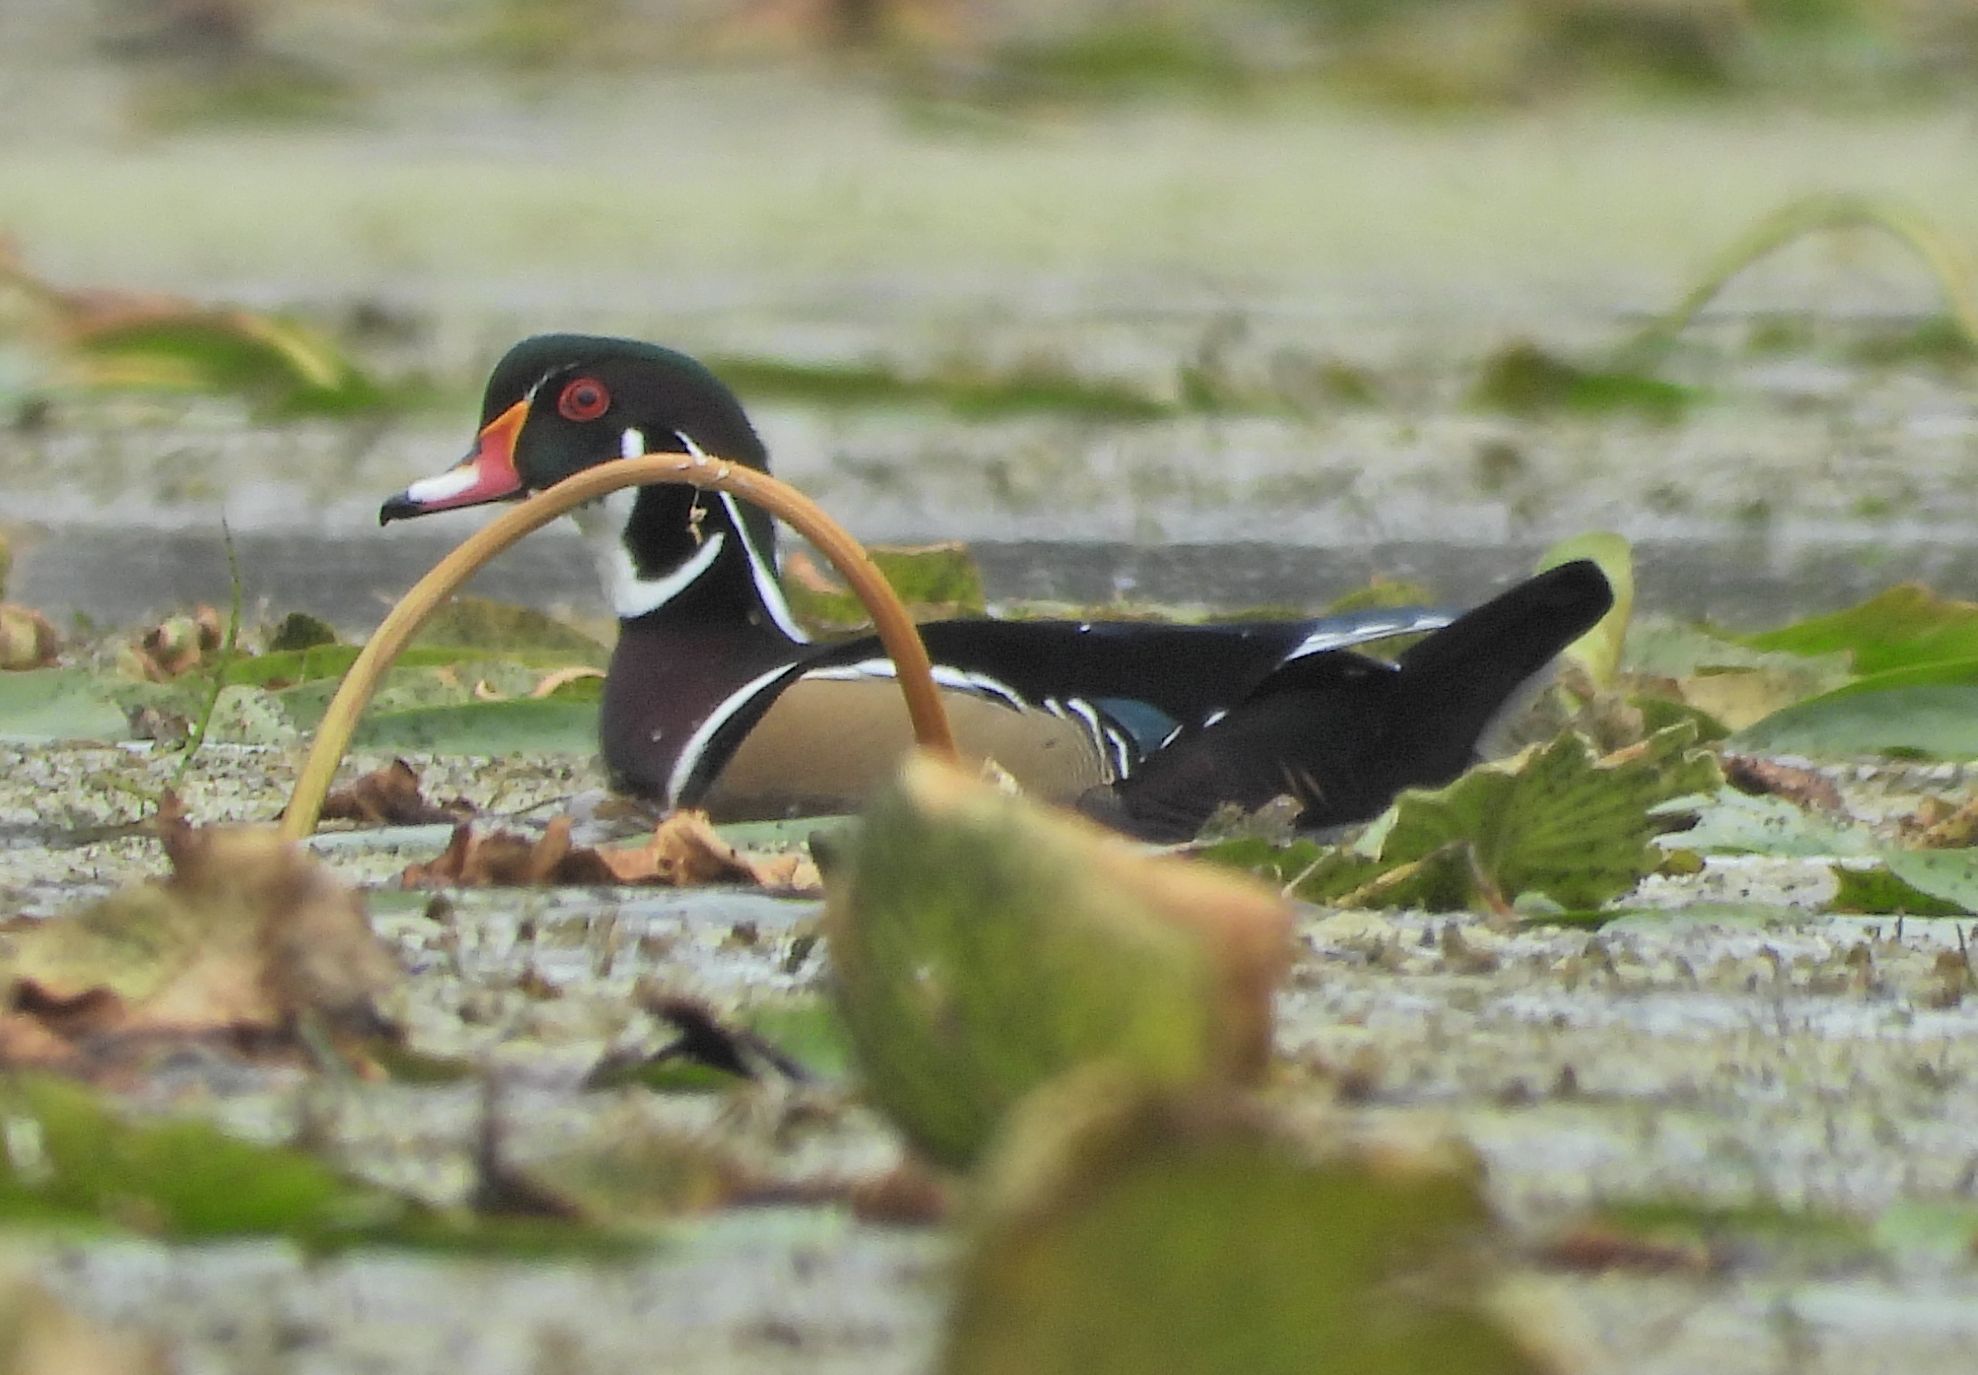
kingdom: Animalia
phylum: Chordata
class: Aves
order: Anseriformes
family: Anatidae
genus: Aix
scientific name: Aix sponsa
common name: Wood duck
